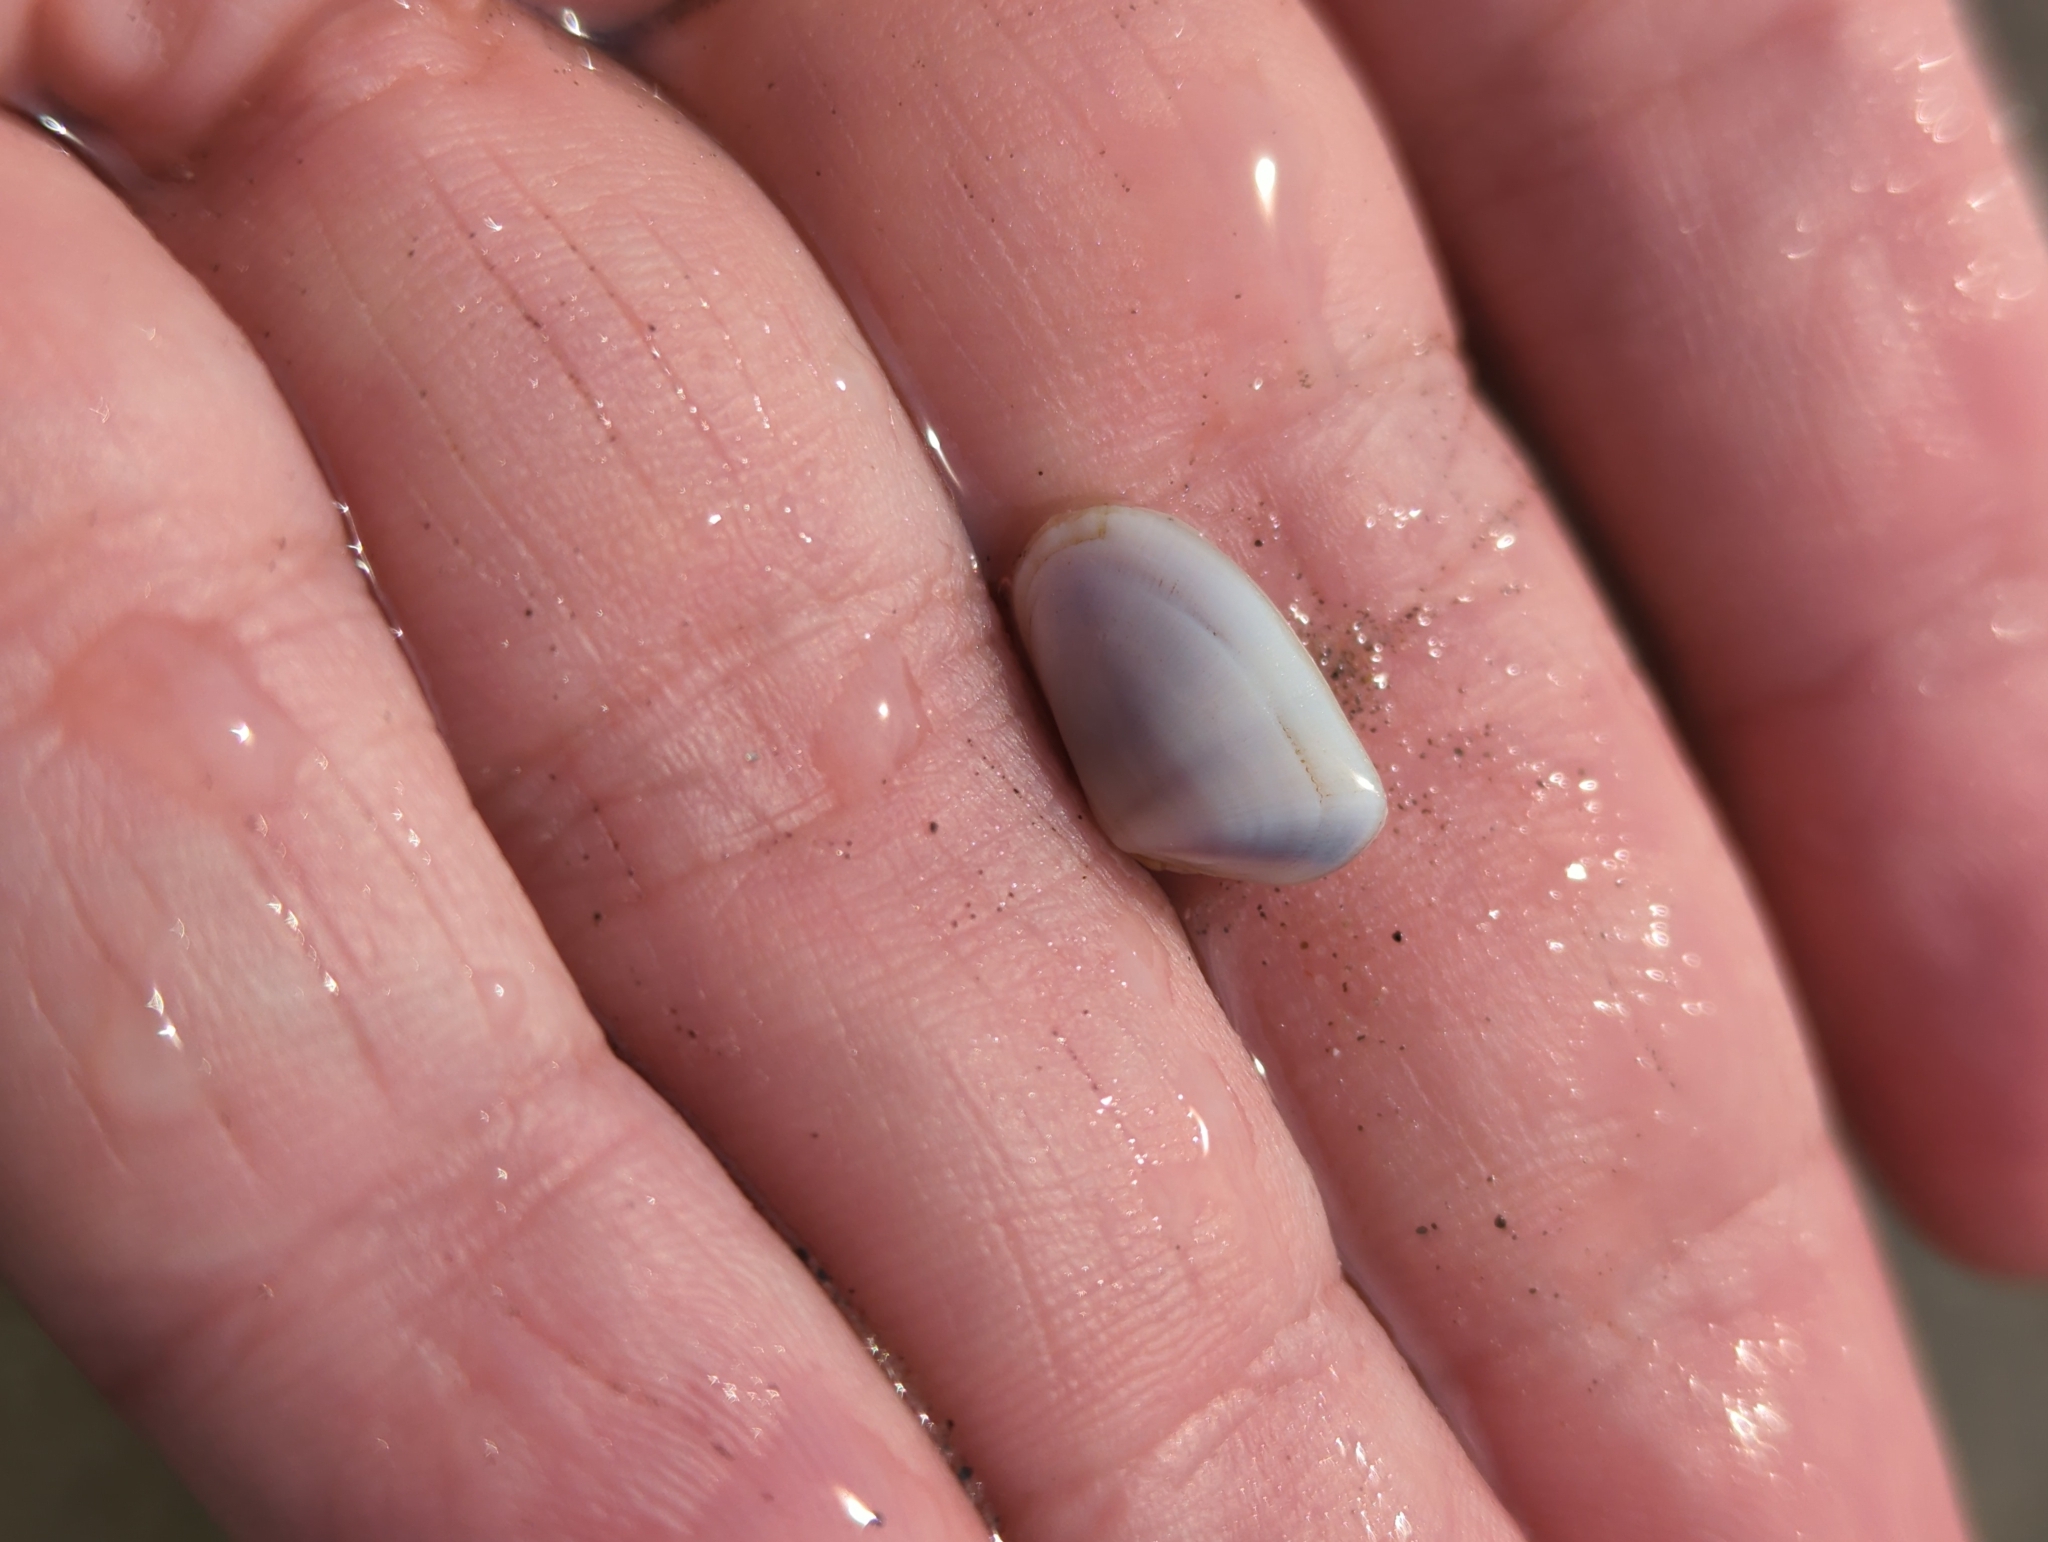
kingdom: Animalia
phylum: Mollusca
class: Bivalvia
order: Cardiida
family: Donacidae
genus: Donax
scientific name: Donax fossor
